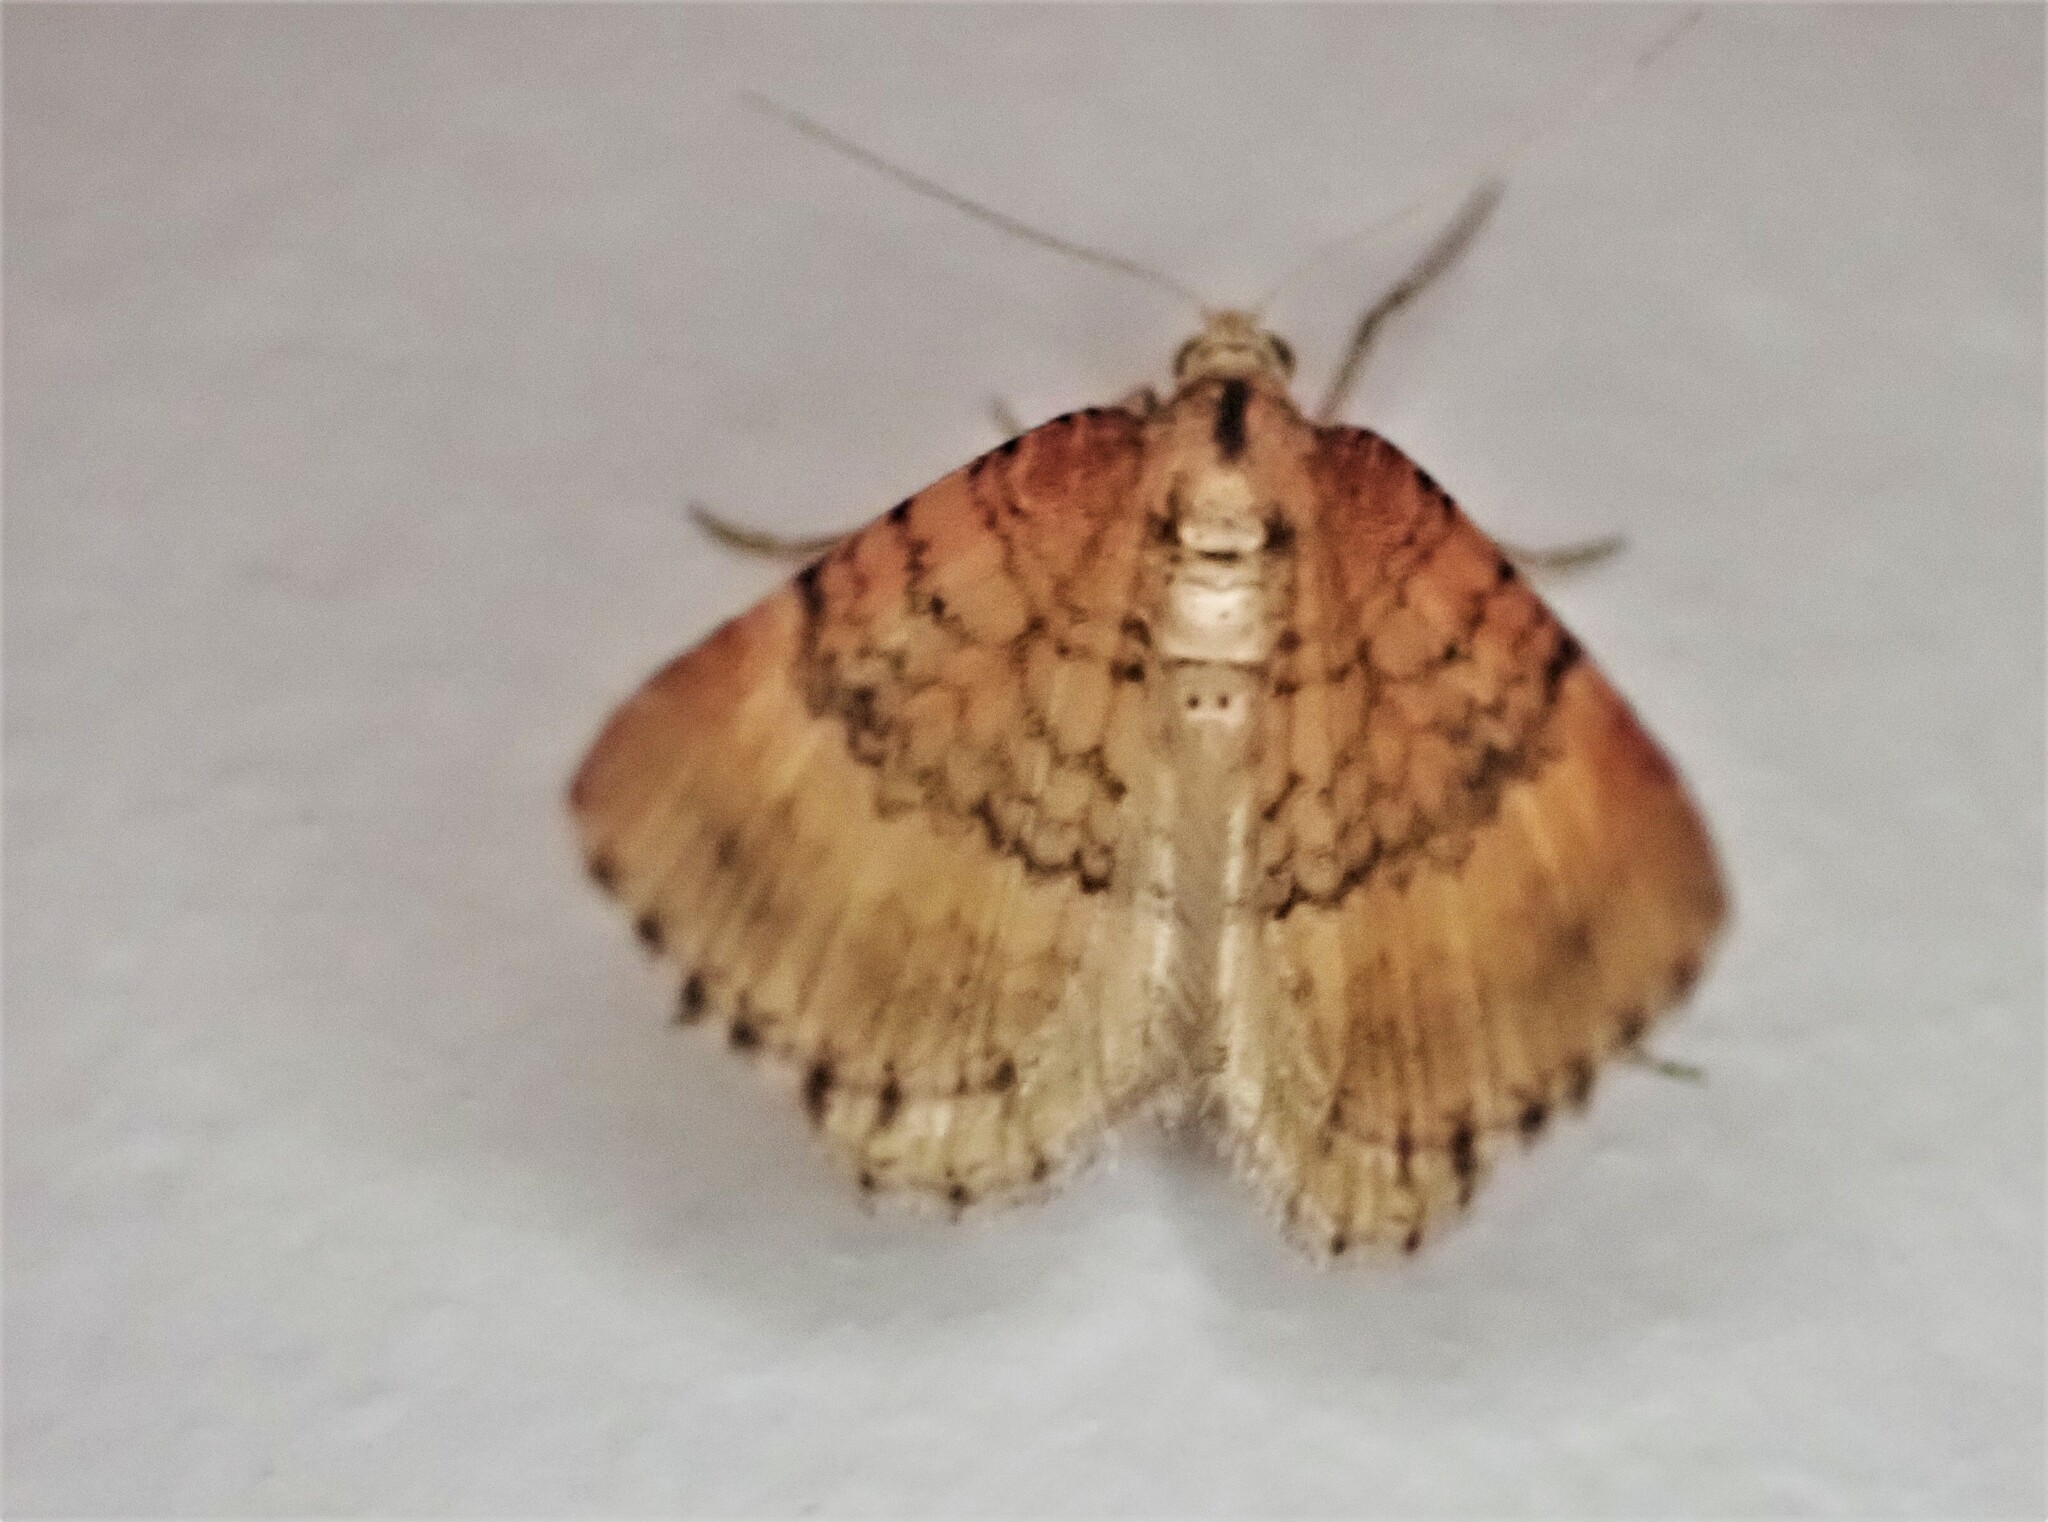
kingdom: Animalia
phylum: Arthropoda
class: Insecta
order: Lepidoptera
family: Geometridae
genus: Asaphodes
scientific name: Asaphodes aegrota
